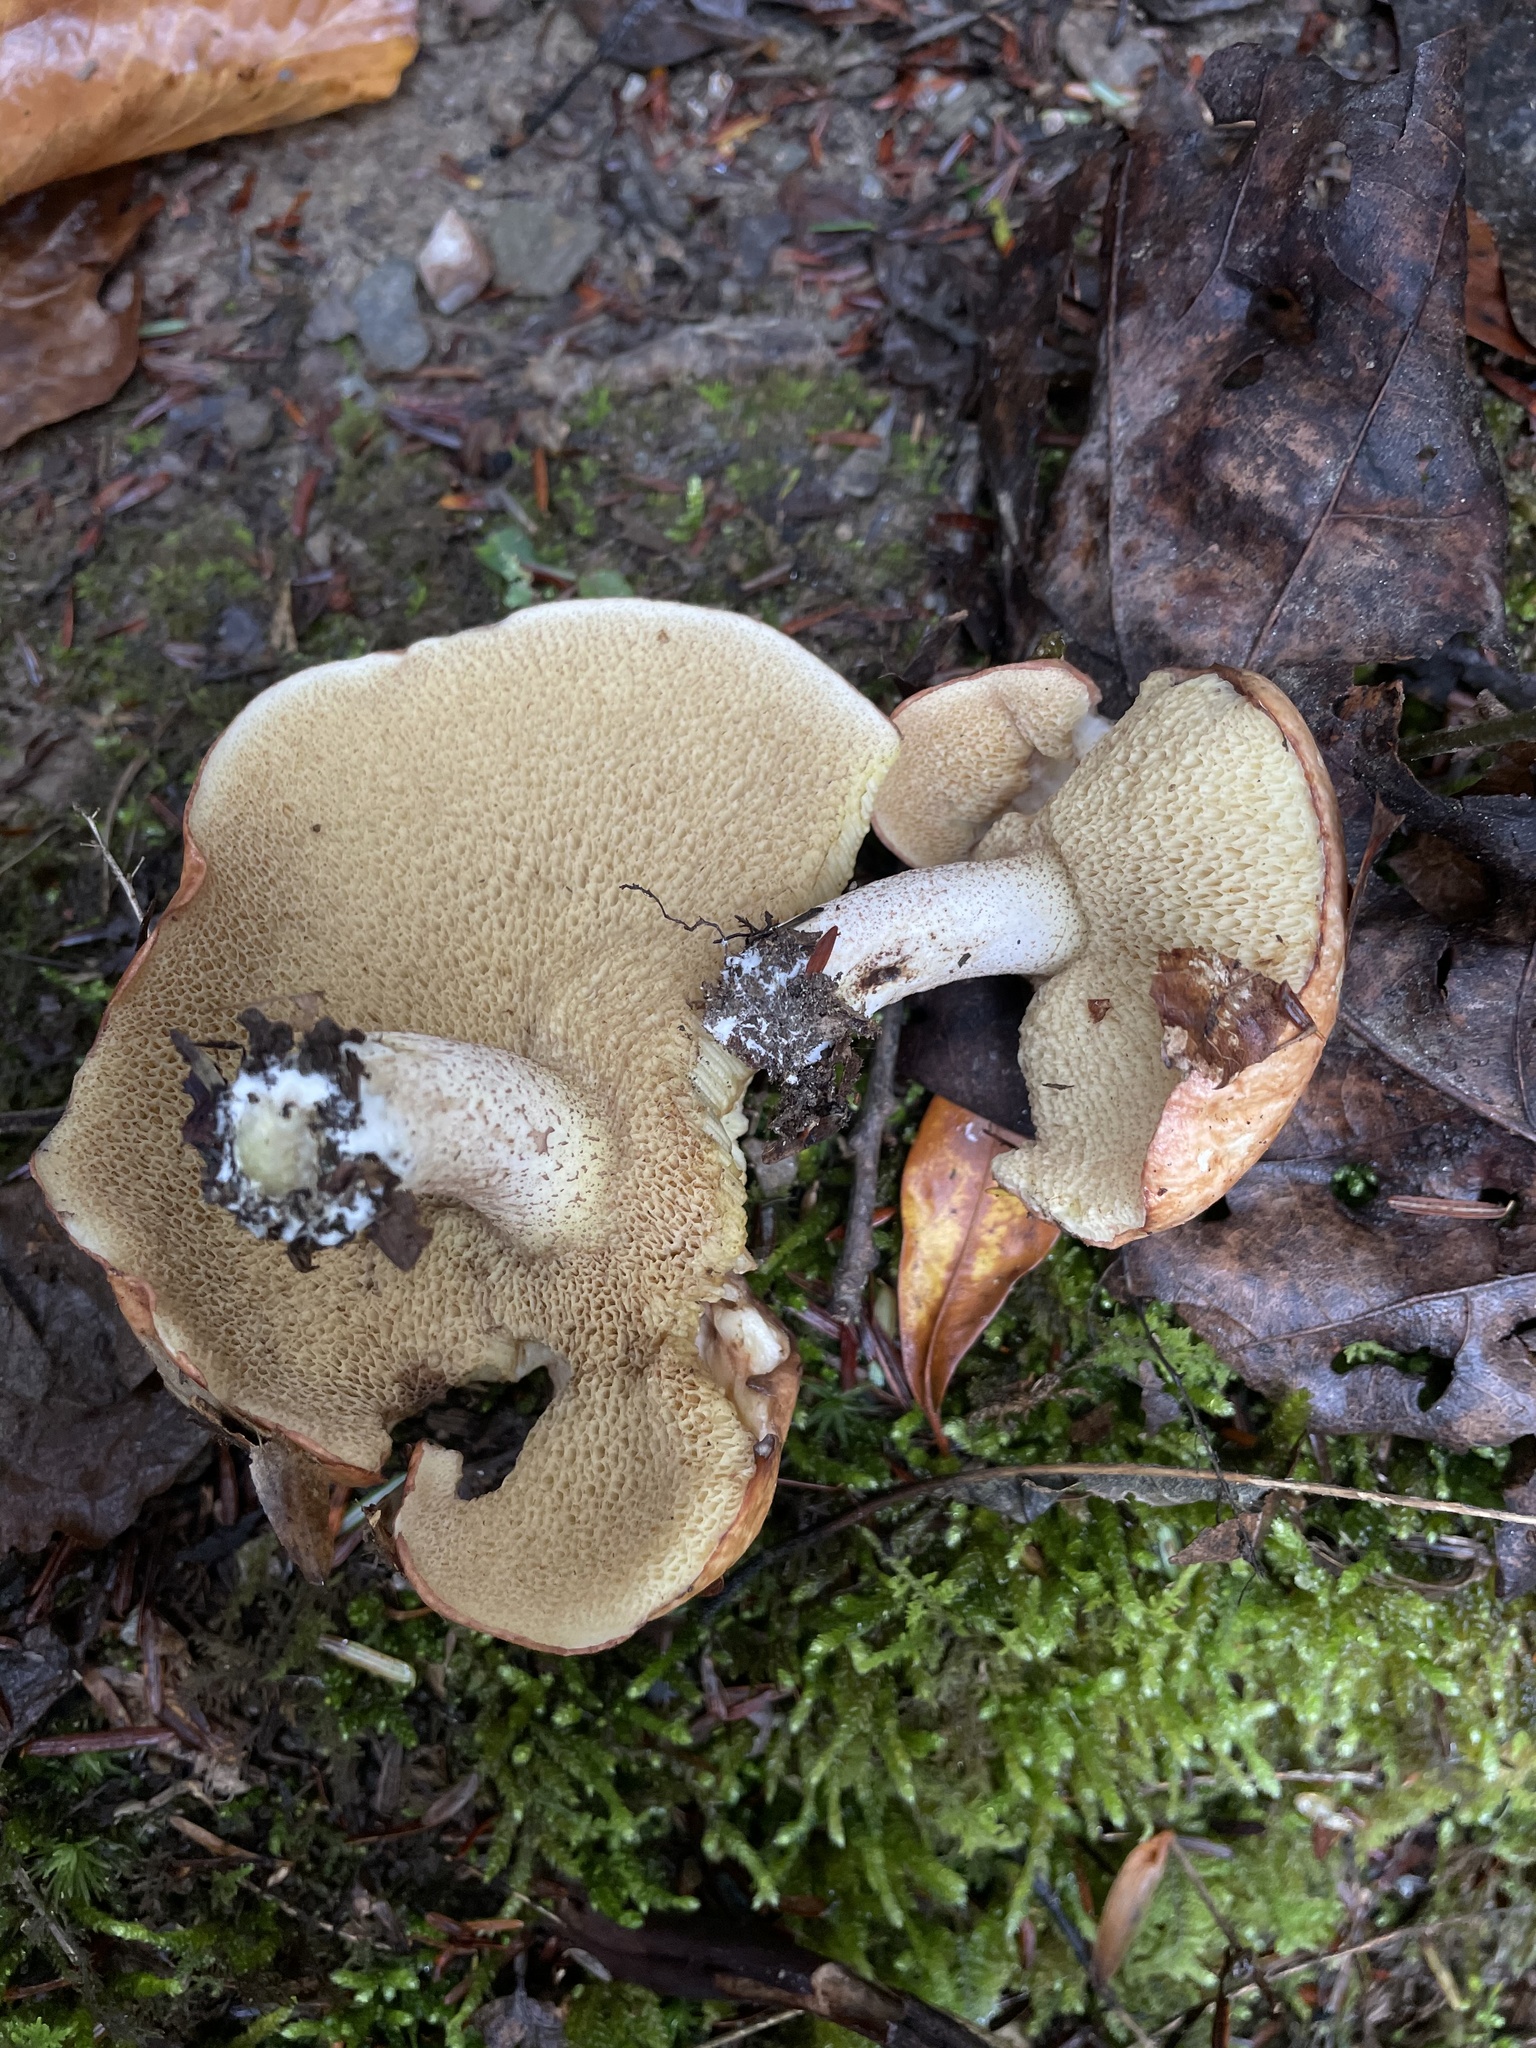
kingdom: Fungi
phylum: Basidiomycota
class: Agaricomycetes
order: Boletales
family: Suillaceae
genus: Fuscoboletinus
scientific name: Fuscoboletinus weaverae
